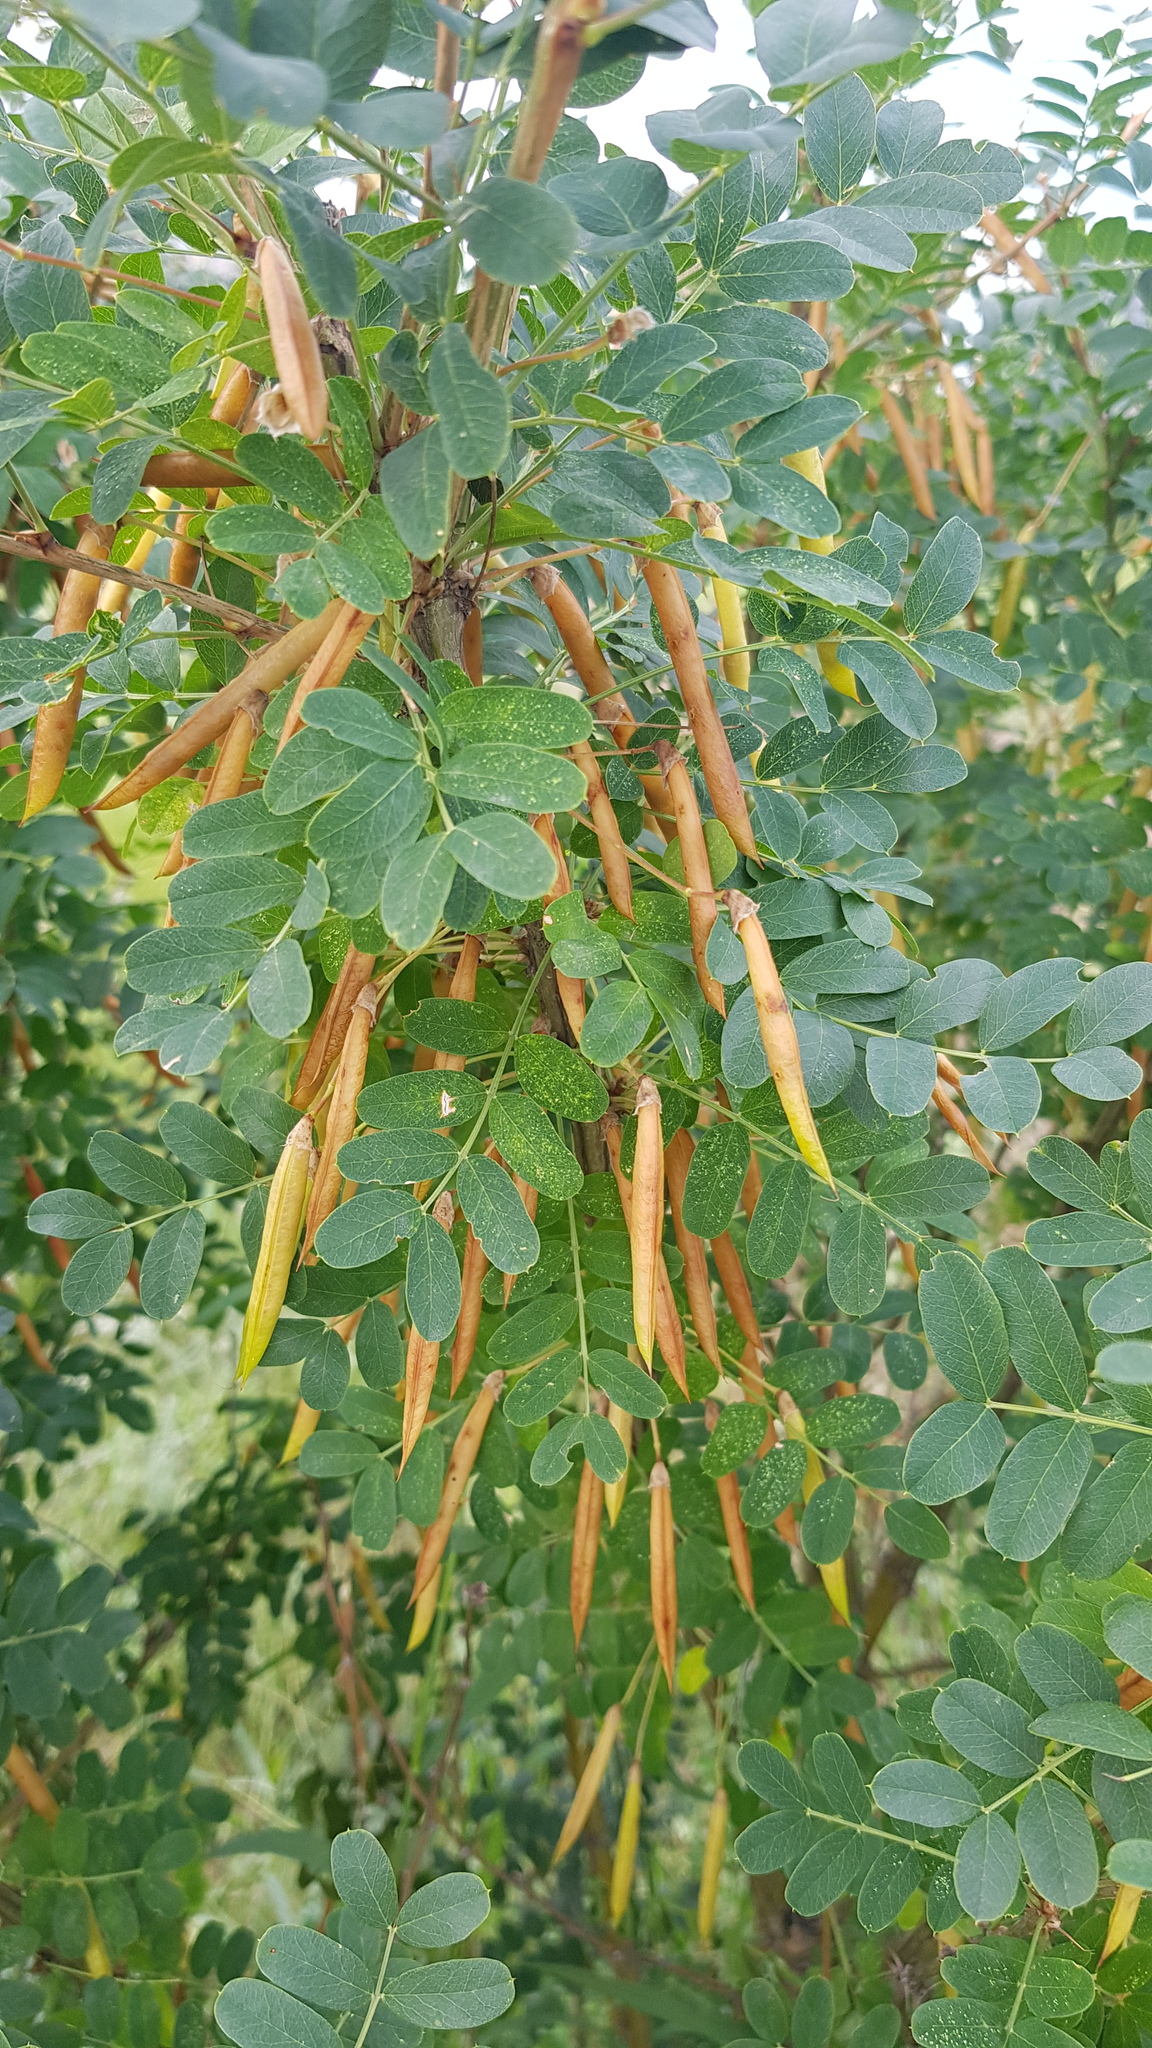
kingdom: Plantae
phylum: Tracheophyta
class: Magnoliopsida
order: Fabales
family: Fabaceae
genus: Caragana
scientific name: Caragana arborescens
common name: Siberian peashrub
